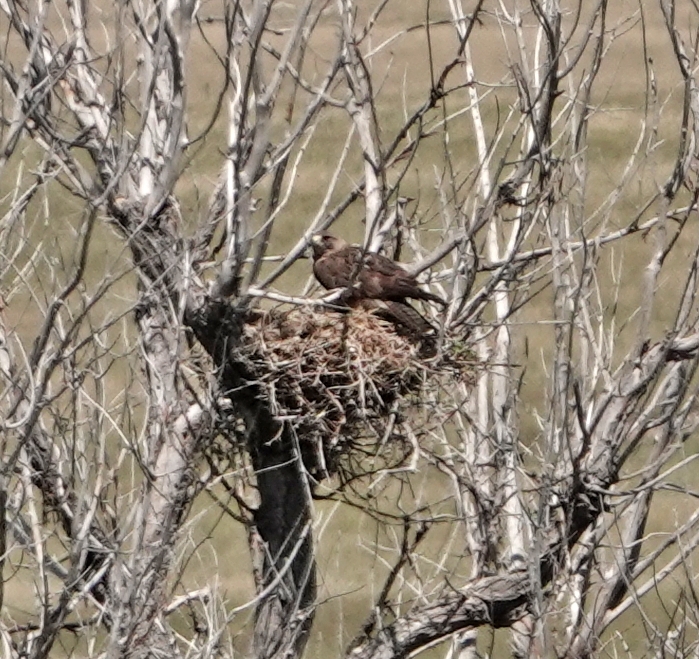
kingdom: Animalia
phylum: Chordata
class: Aves
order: Accipitriformes
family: Accipitridae
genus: Buteo
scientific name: Buteo swainsoni
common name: Swainson's hawk
